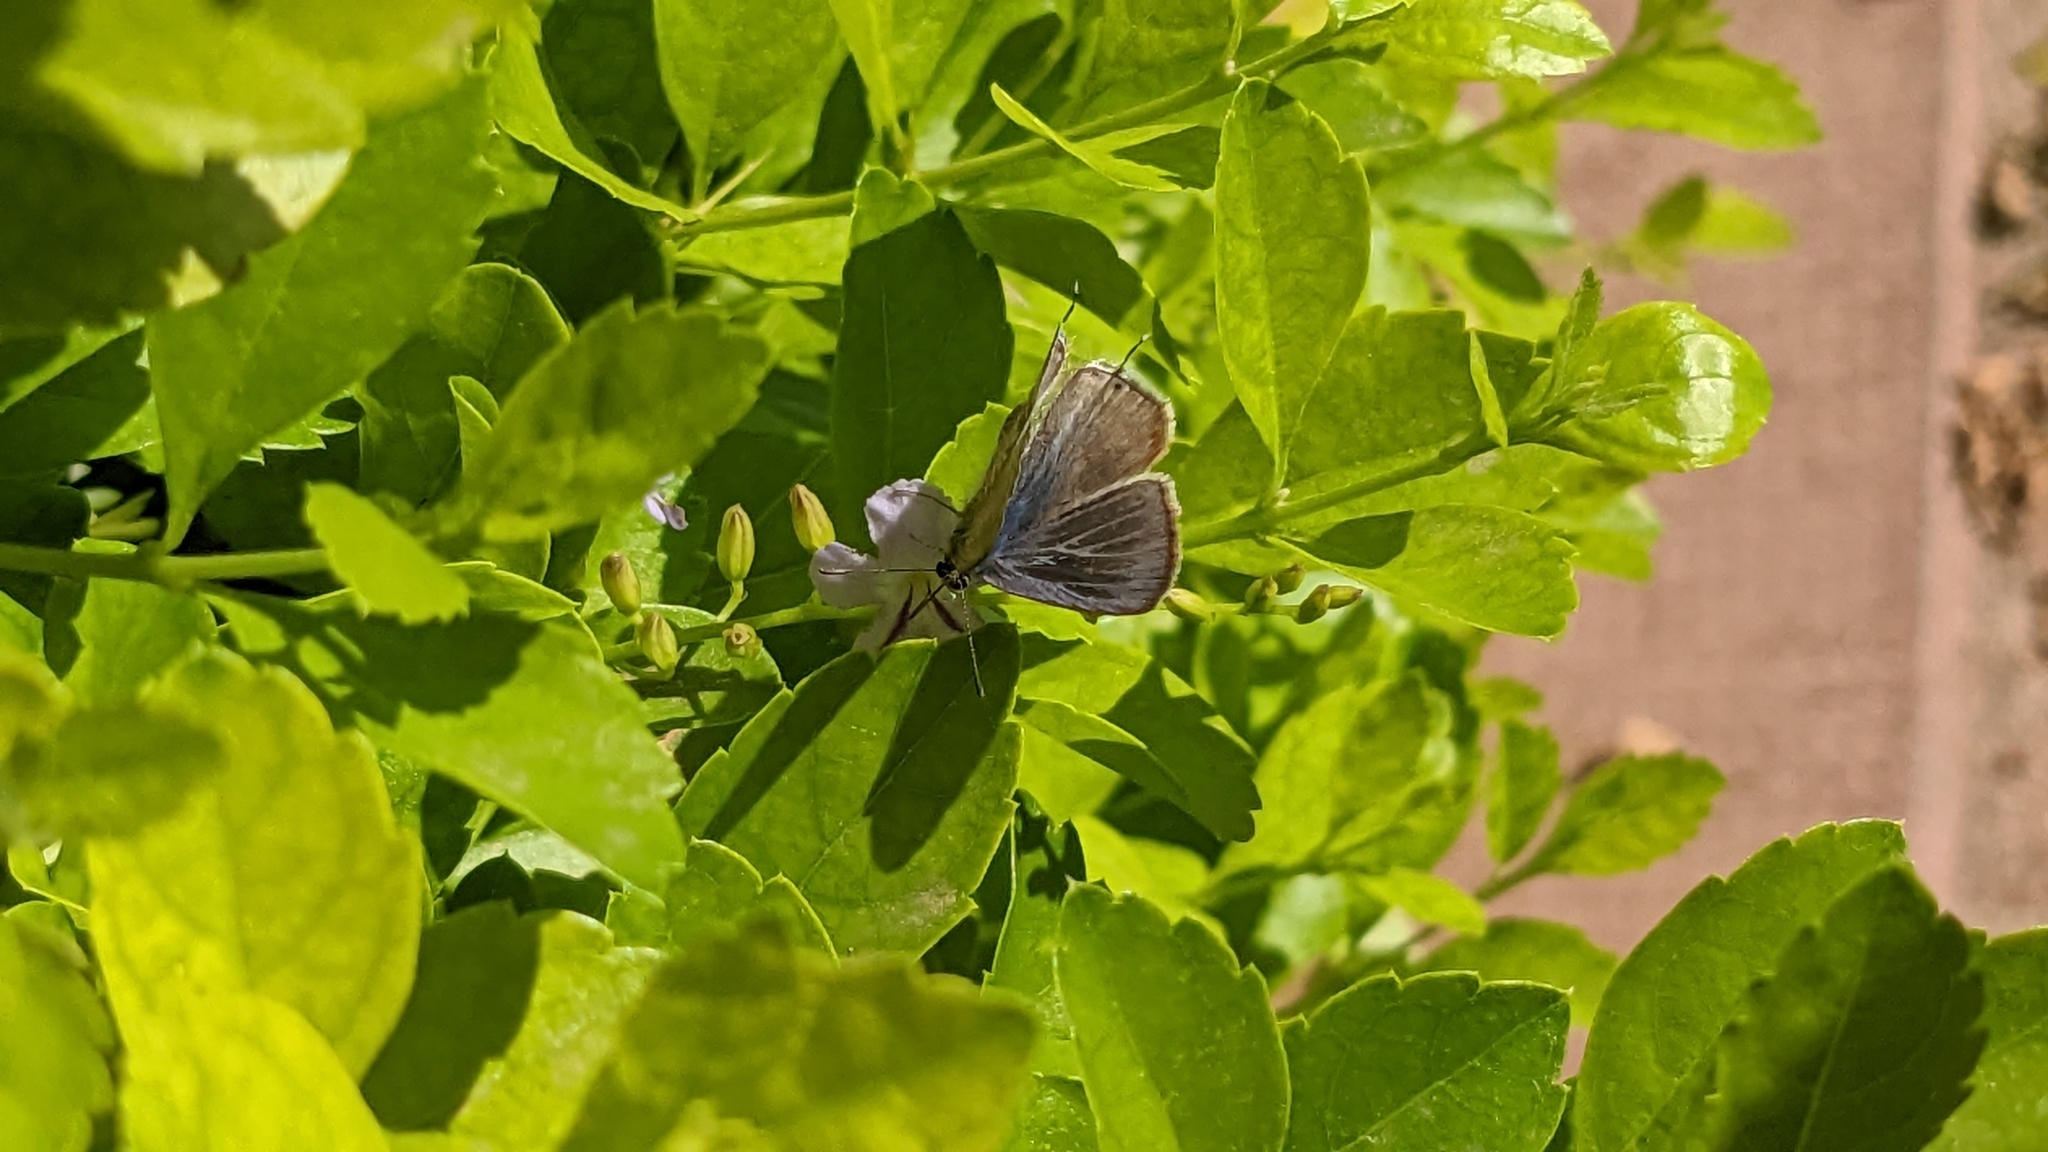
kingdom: Animalia
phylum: Arthropoda
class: Insecta
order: Lepidoptera
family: Lycaenidae
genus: Lampides
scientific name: Lampides boeticus
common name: Long-tailed blue
